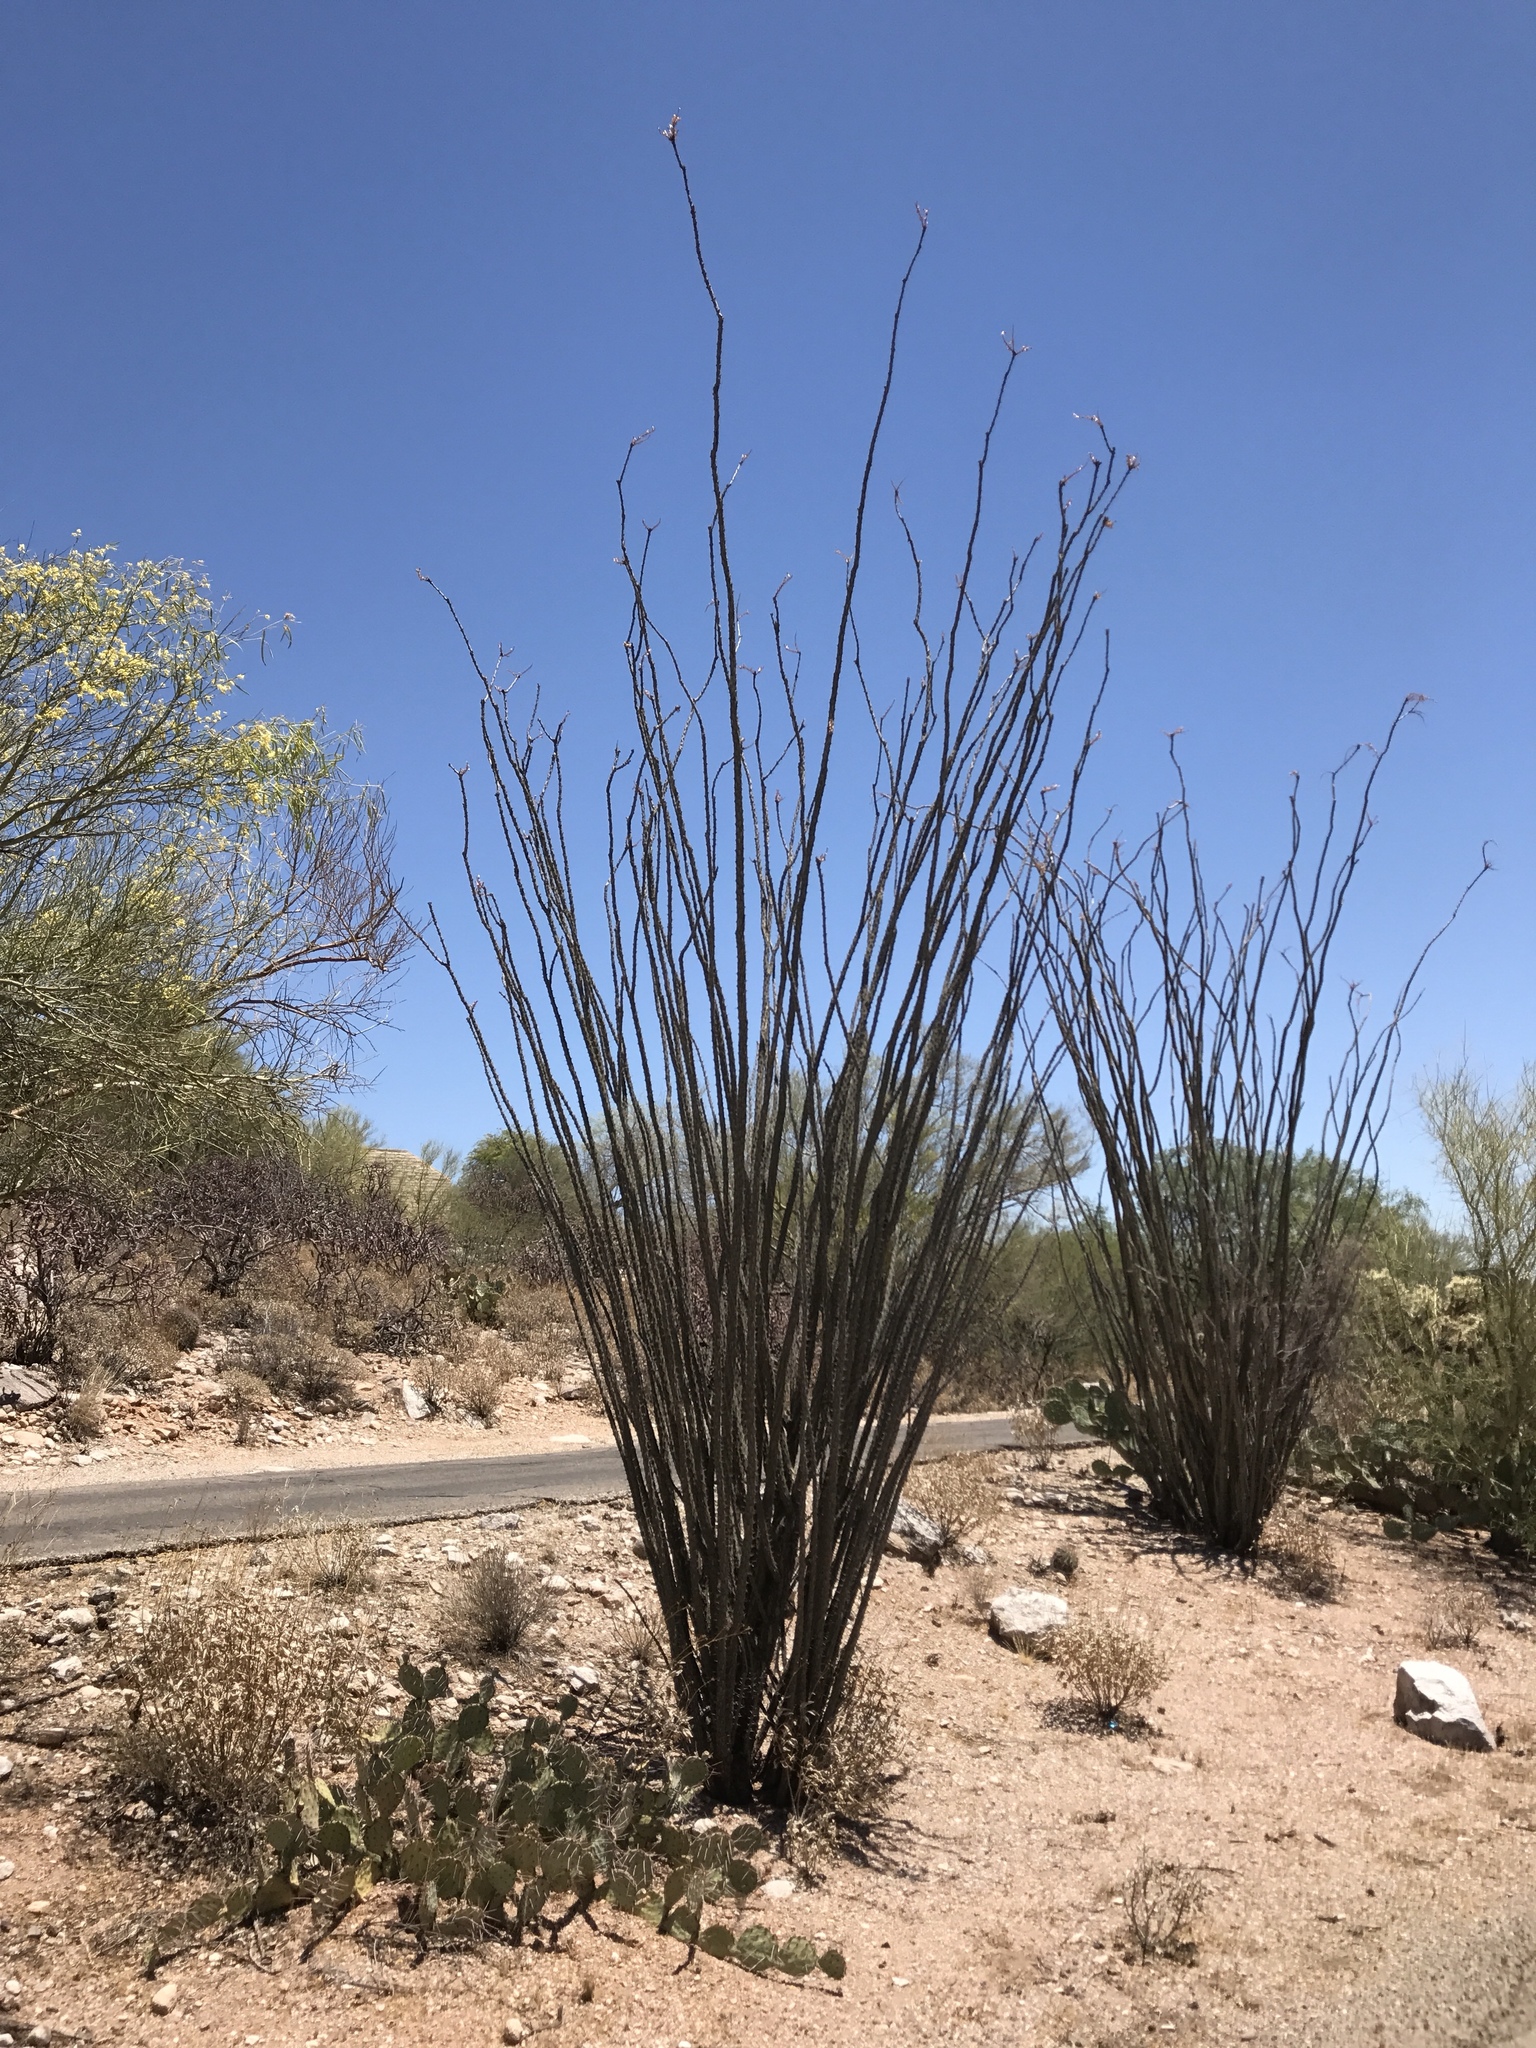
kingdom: Plantae
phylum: Tracheophyta
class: Magnoliopsida
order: Ericales
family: Fouquieriaceae
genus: Fouquieria
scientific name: Fouquieria splendens
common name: Vine-cactus
